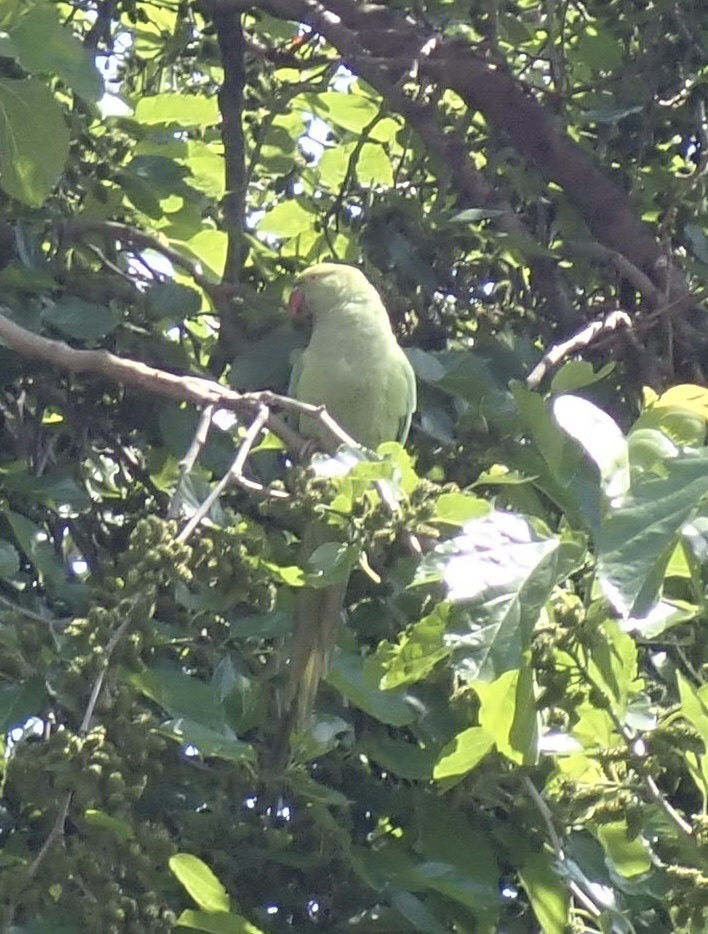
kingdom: Animalia
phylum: Chordata
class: Aves
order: Psittaciformes
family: Psittacidae
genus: Psittacula
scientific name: Psittacula krameri
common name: Rose-ringed parakeet
